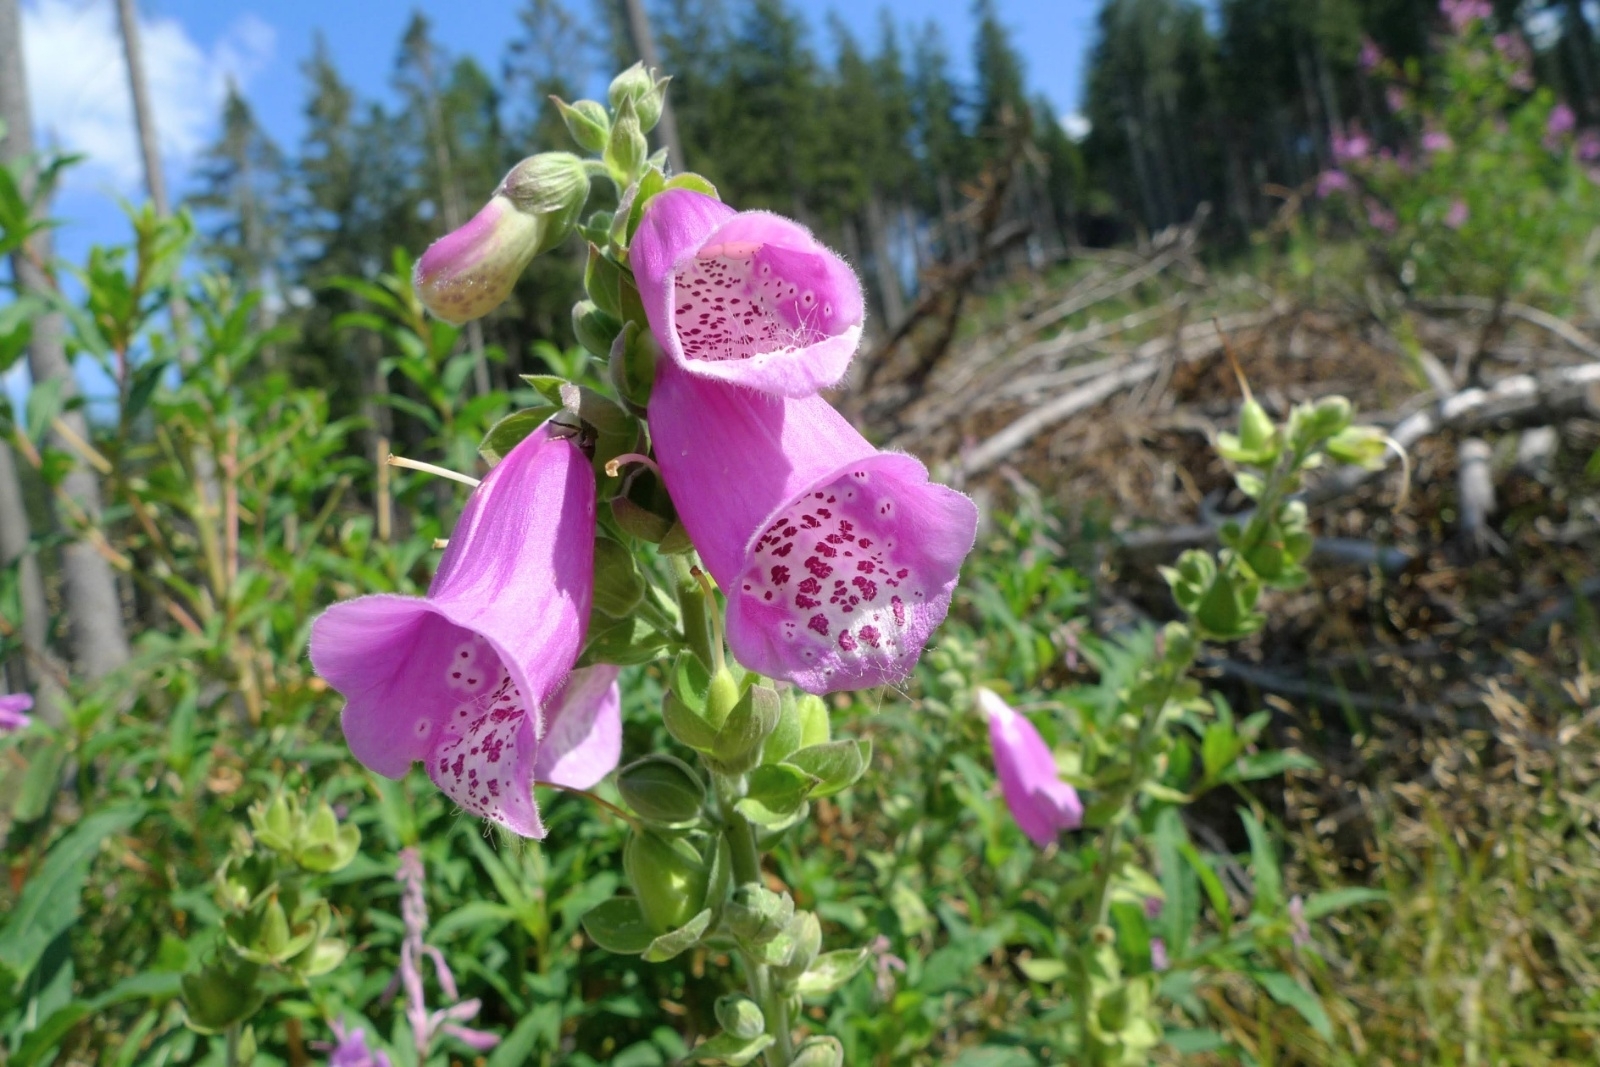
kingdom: Plantae
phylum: Tracheophyta
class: Magnoliopsida
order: Lamiales
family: Plantaginaceae
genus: Digitalis
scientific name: Digitalis purpurea
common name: Foxglove
